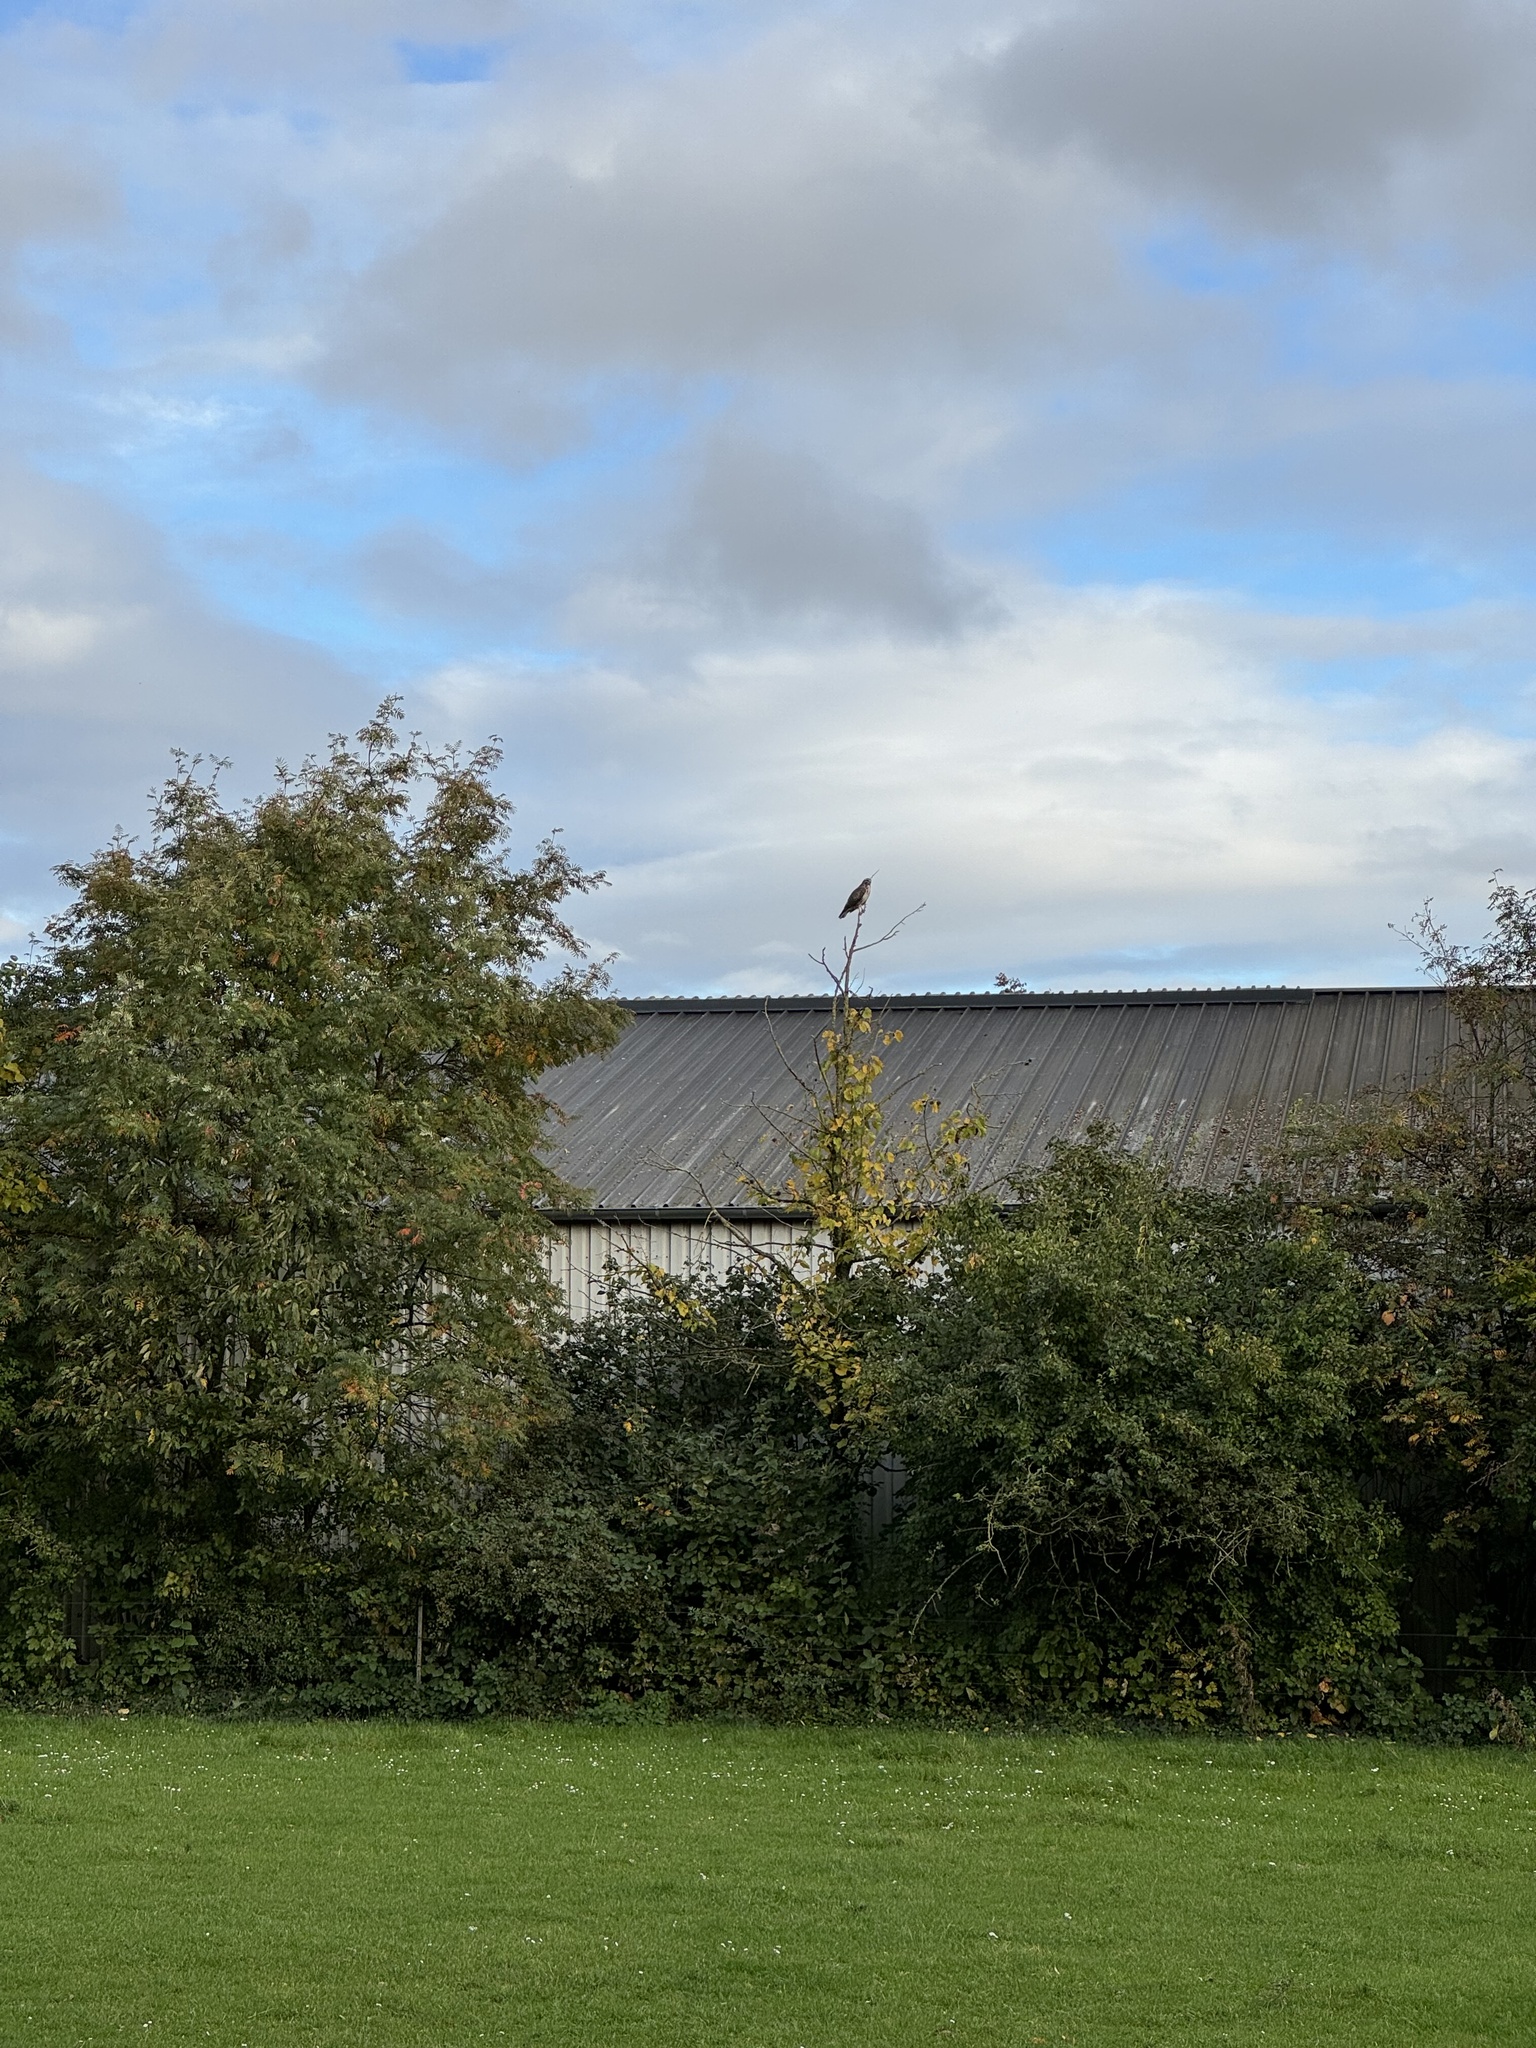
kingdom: Animalia
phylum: Chordata
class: Aves
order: Accipitriformes
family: Accipitridae
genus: Buteo
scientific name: Buteo buteo
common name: Common buzzard
